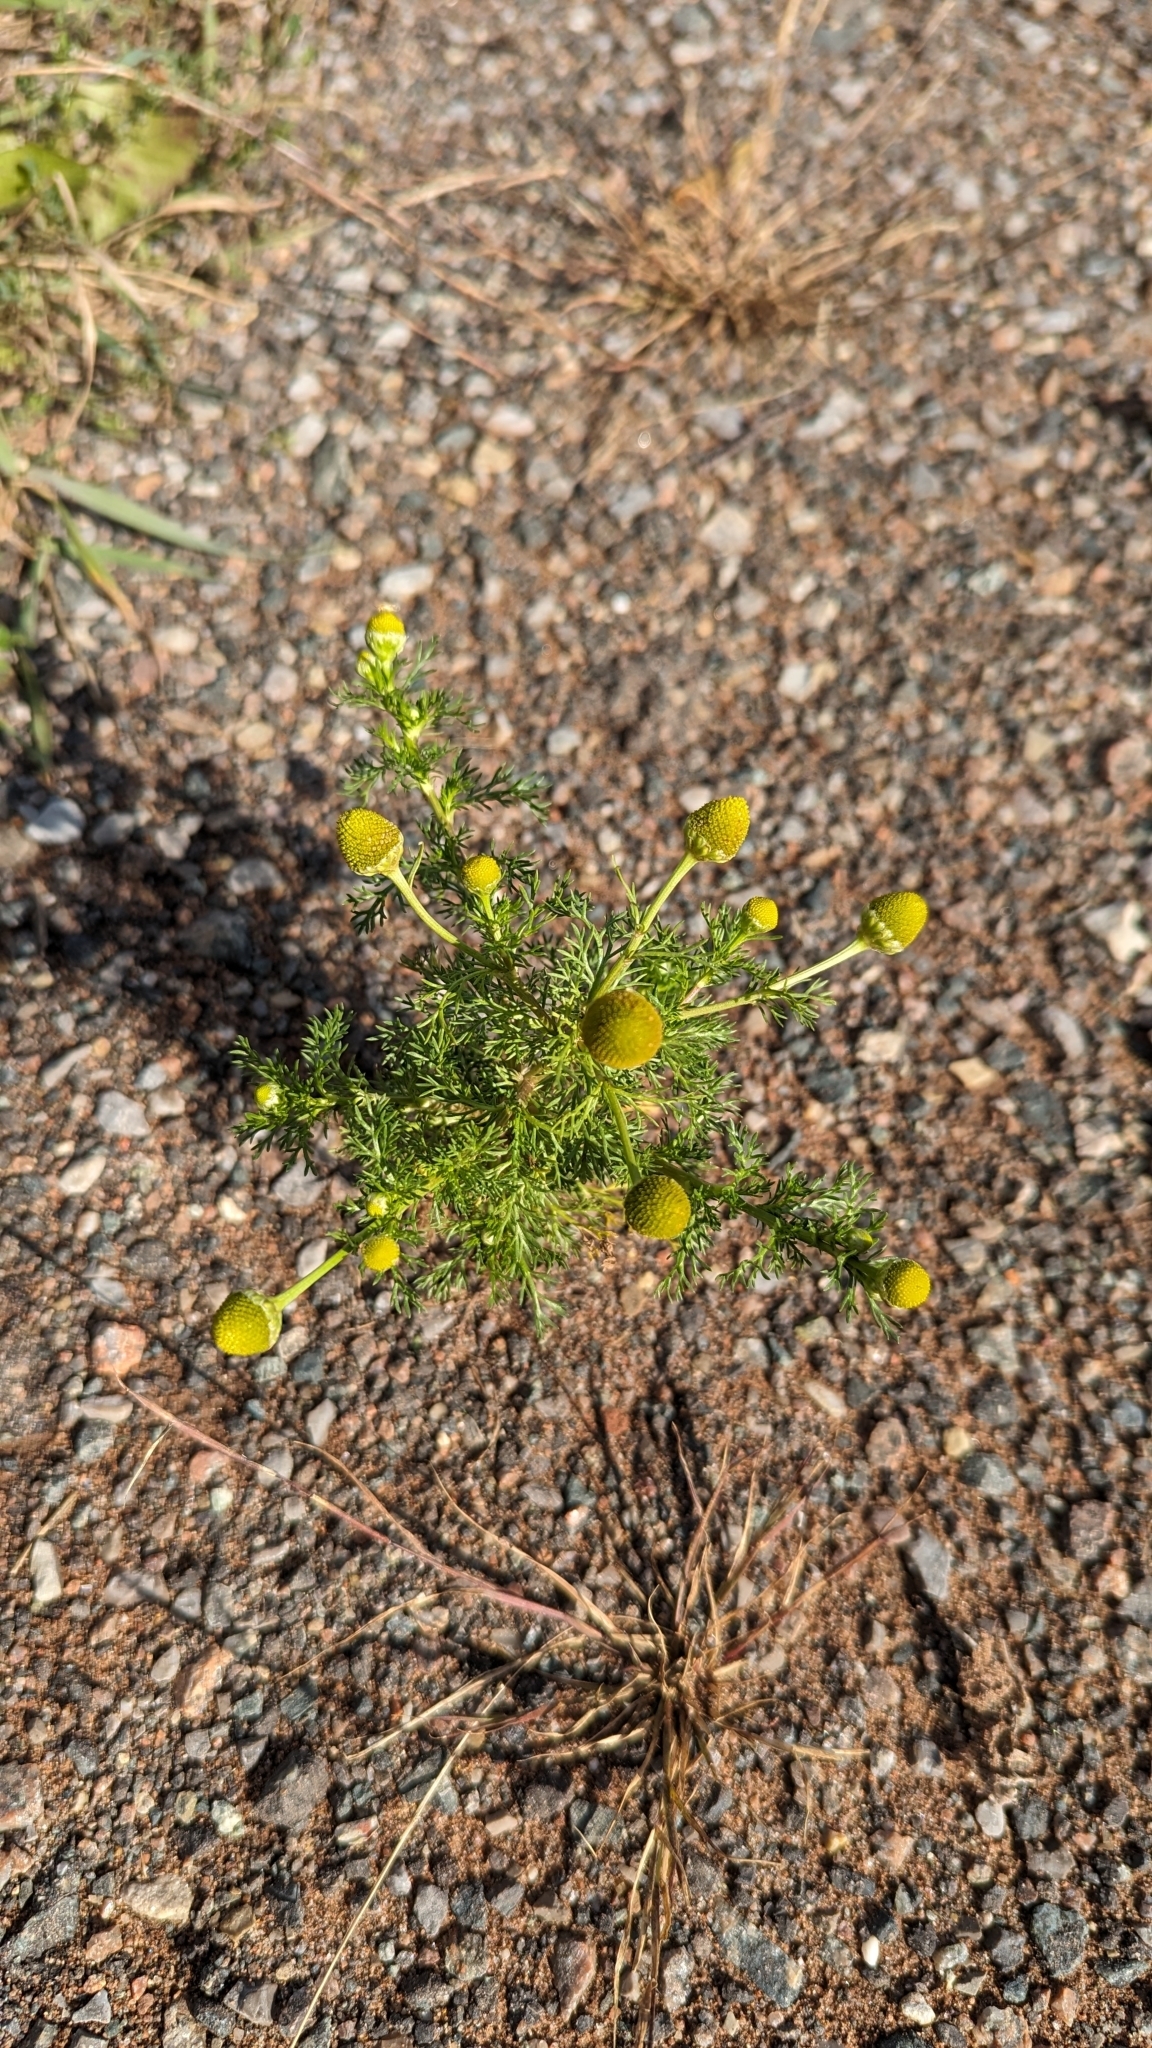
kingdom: Plantae
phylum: Tracheophyta
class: Magnoliopsida
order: Asterales
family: Asteraceae
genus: Matricaria
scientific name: Matricaria discoidea
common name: Disc mayweed
